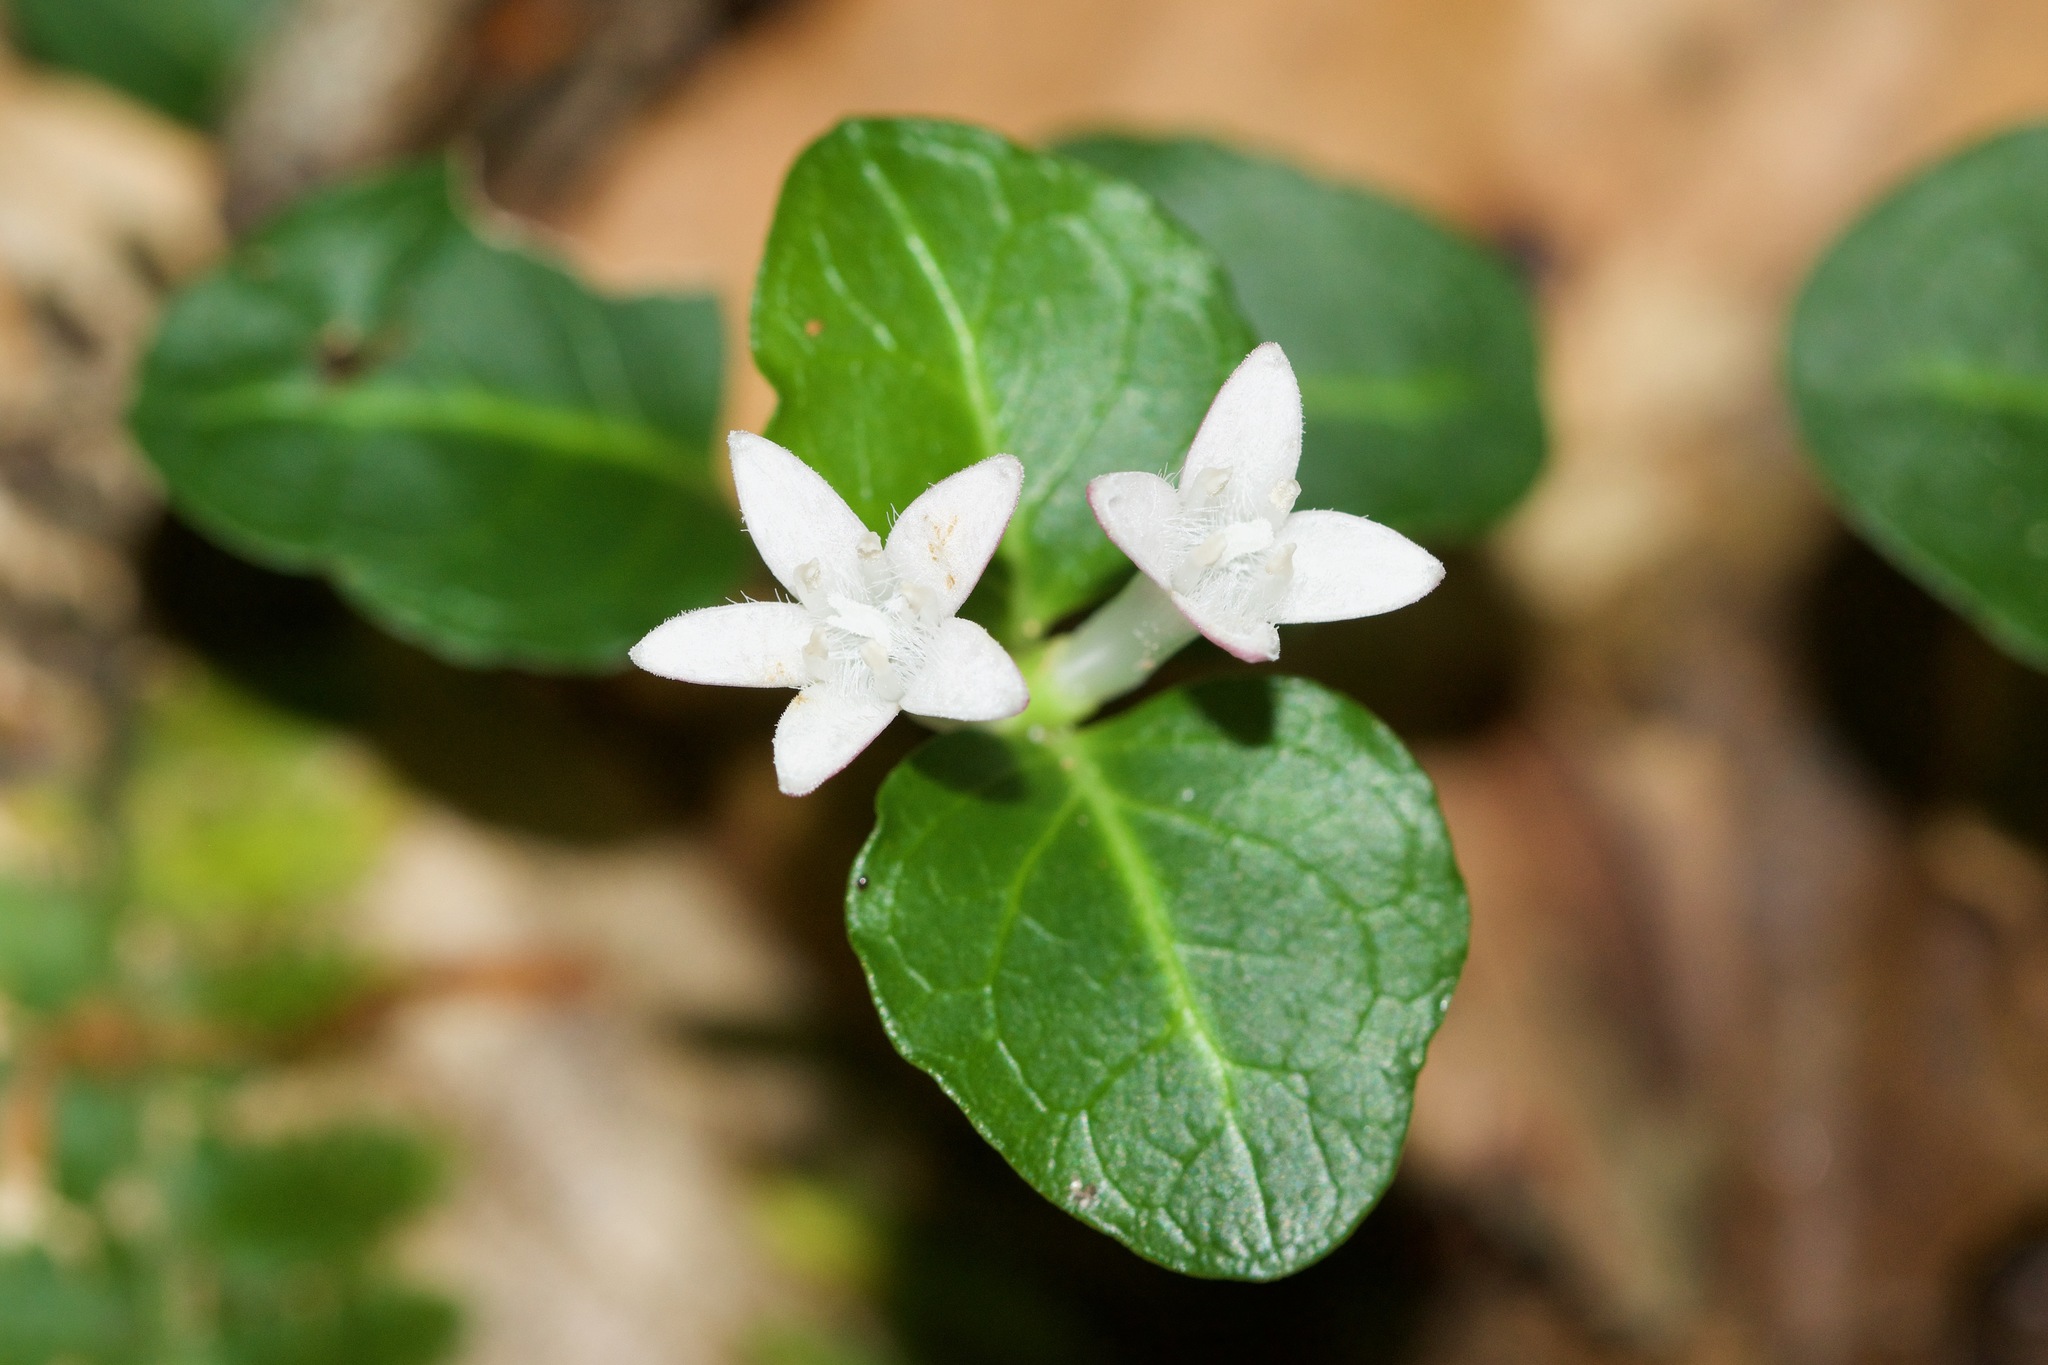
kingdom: Plantae
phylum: Tracheophyta
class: Magnoliopsida
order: Gentianales
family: Rubiaceae
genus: Mitchella
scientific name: Mitchella repens
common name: Partridge-berry
